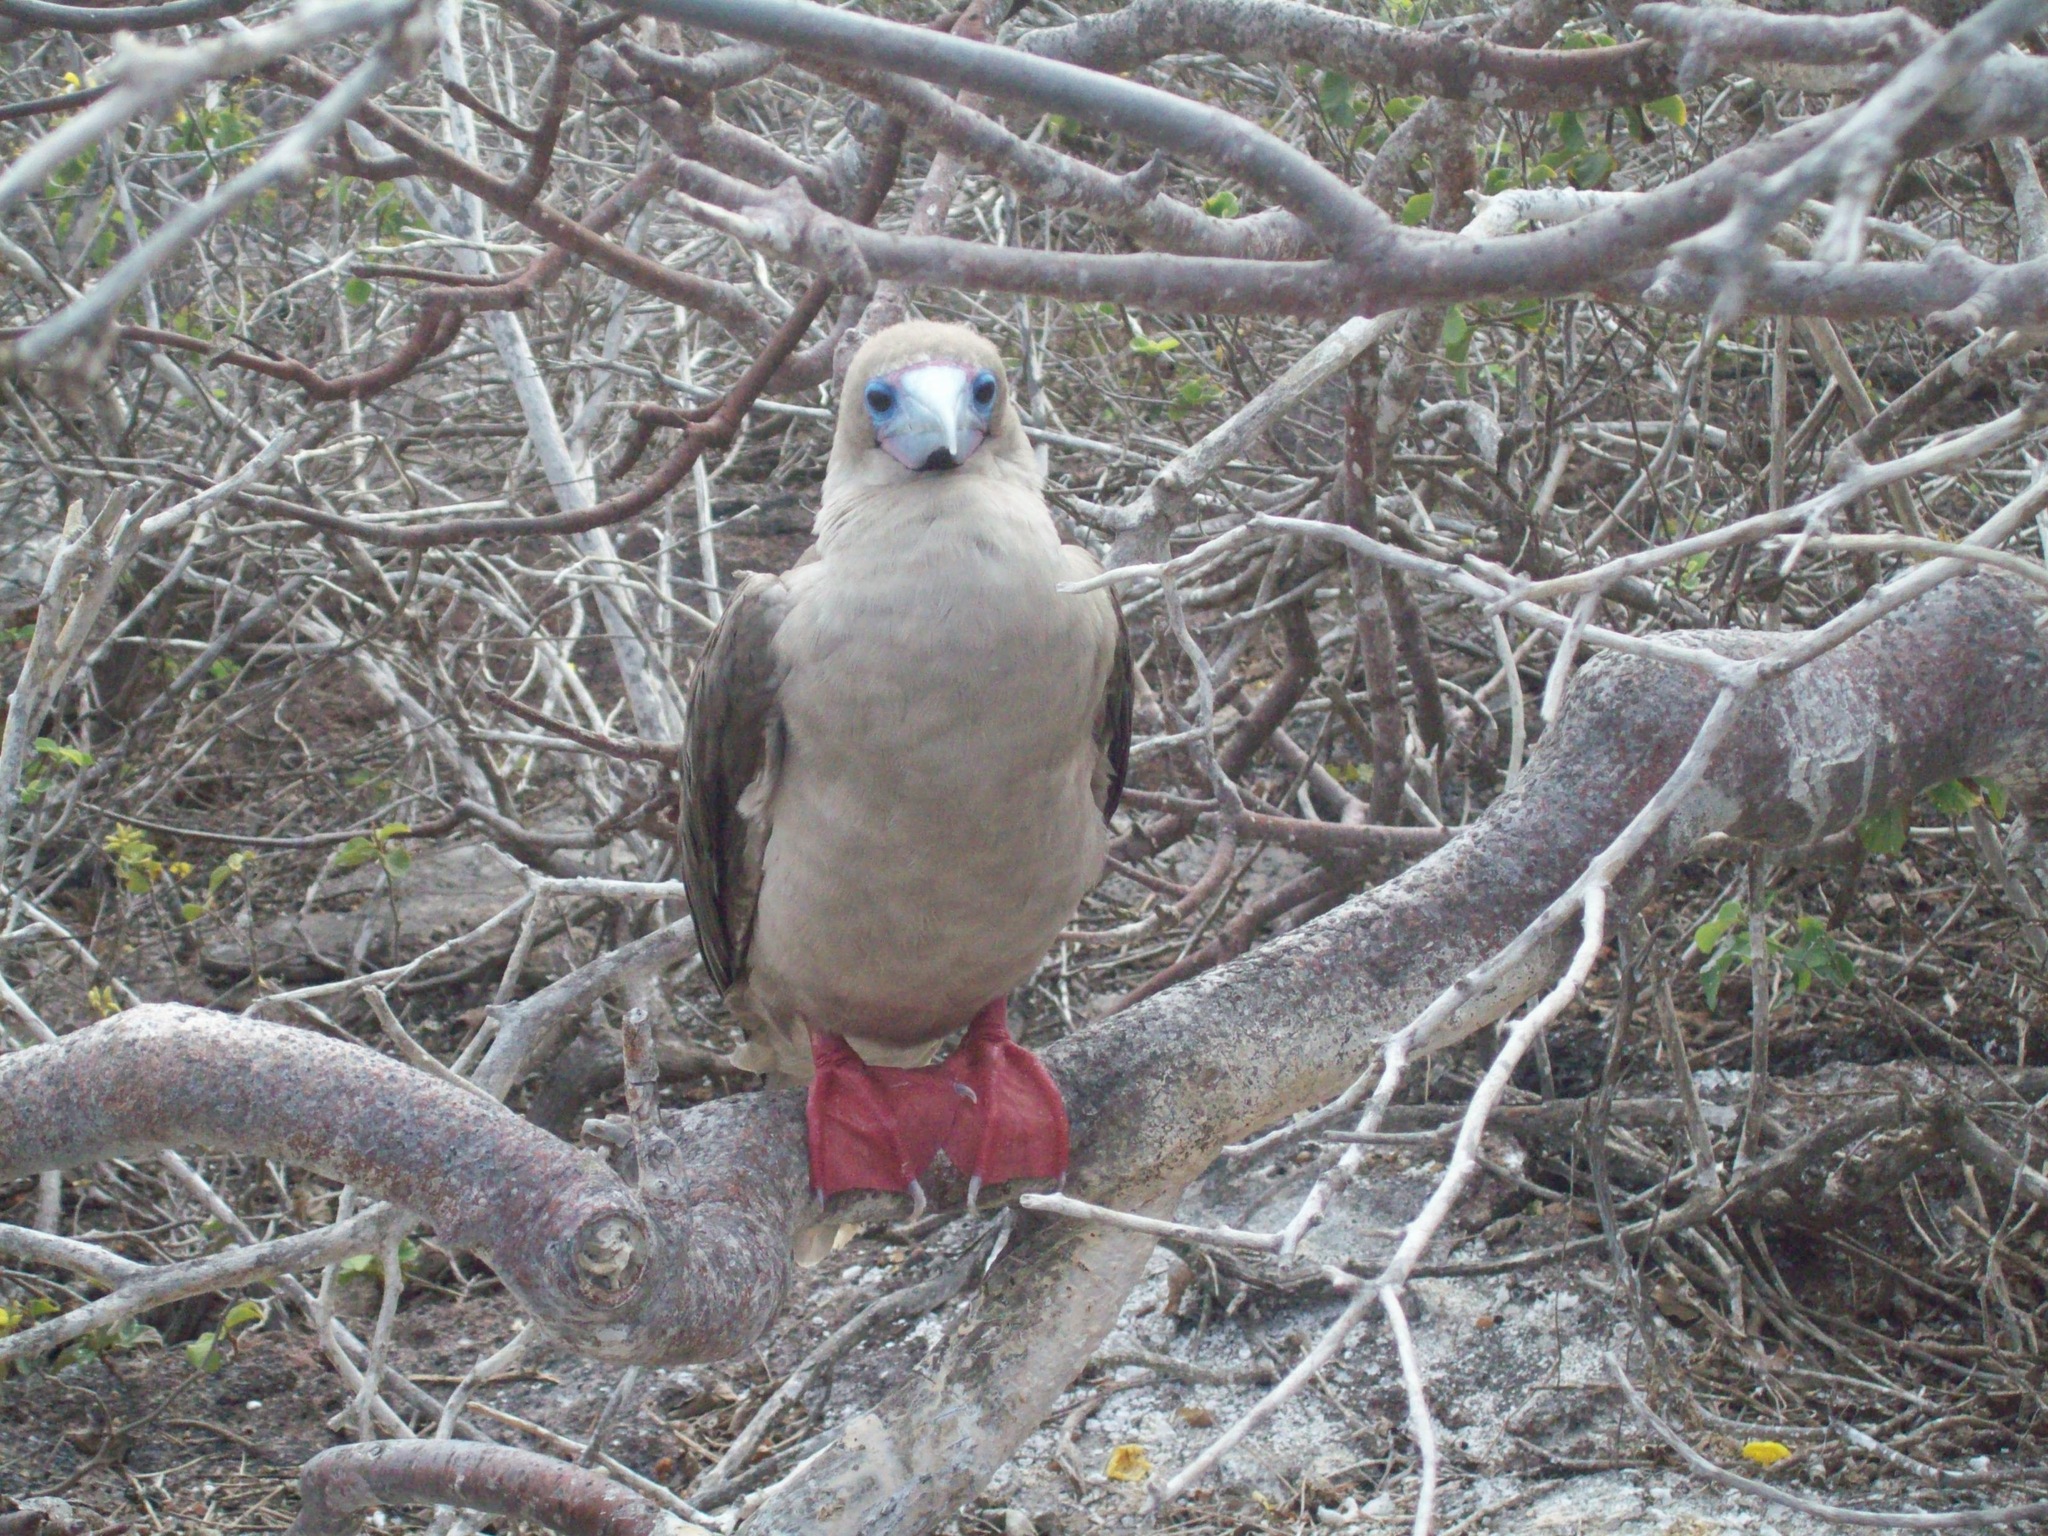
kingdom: Animalia
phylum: Chordata
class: Aves
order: Suliformes
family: Sulidae
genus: Sula
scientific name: Sula sula
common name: Red-footed booby
